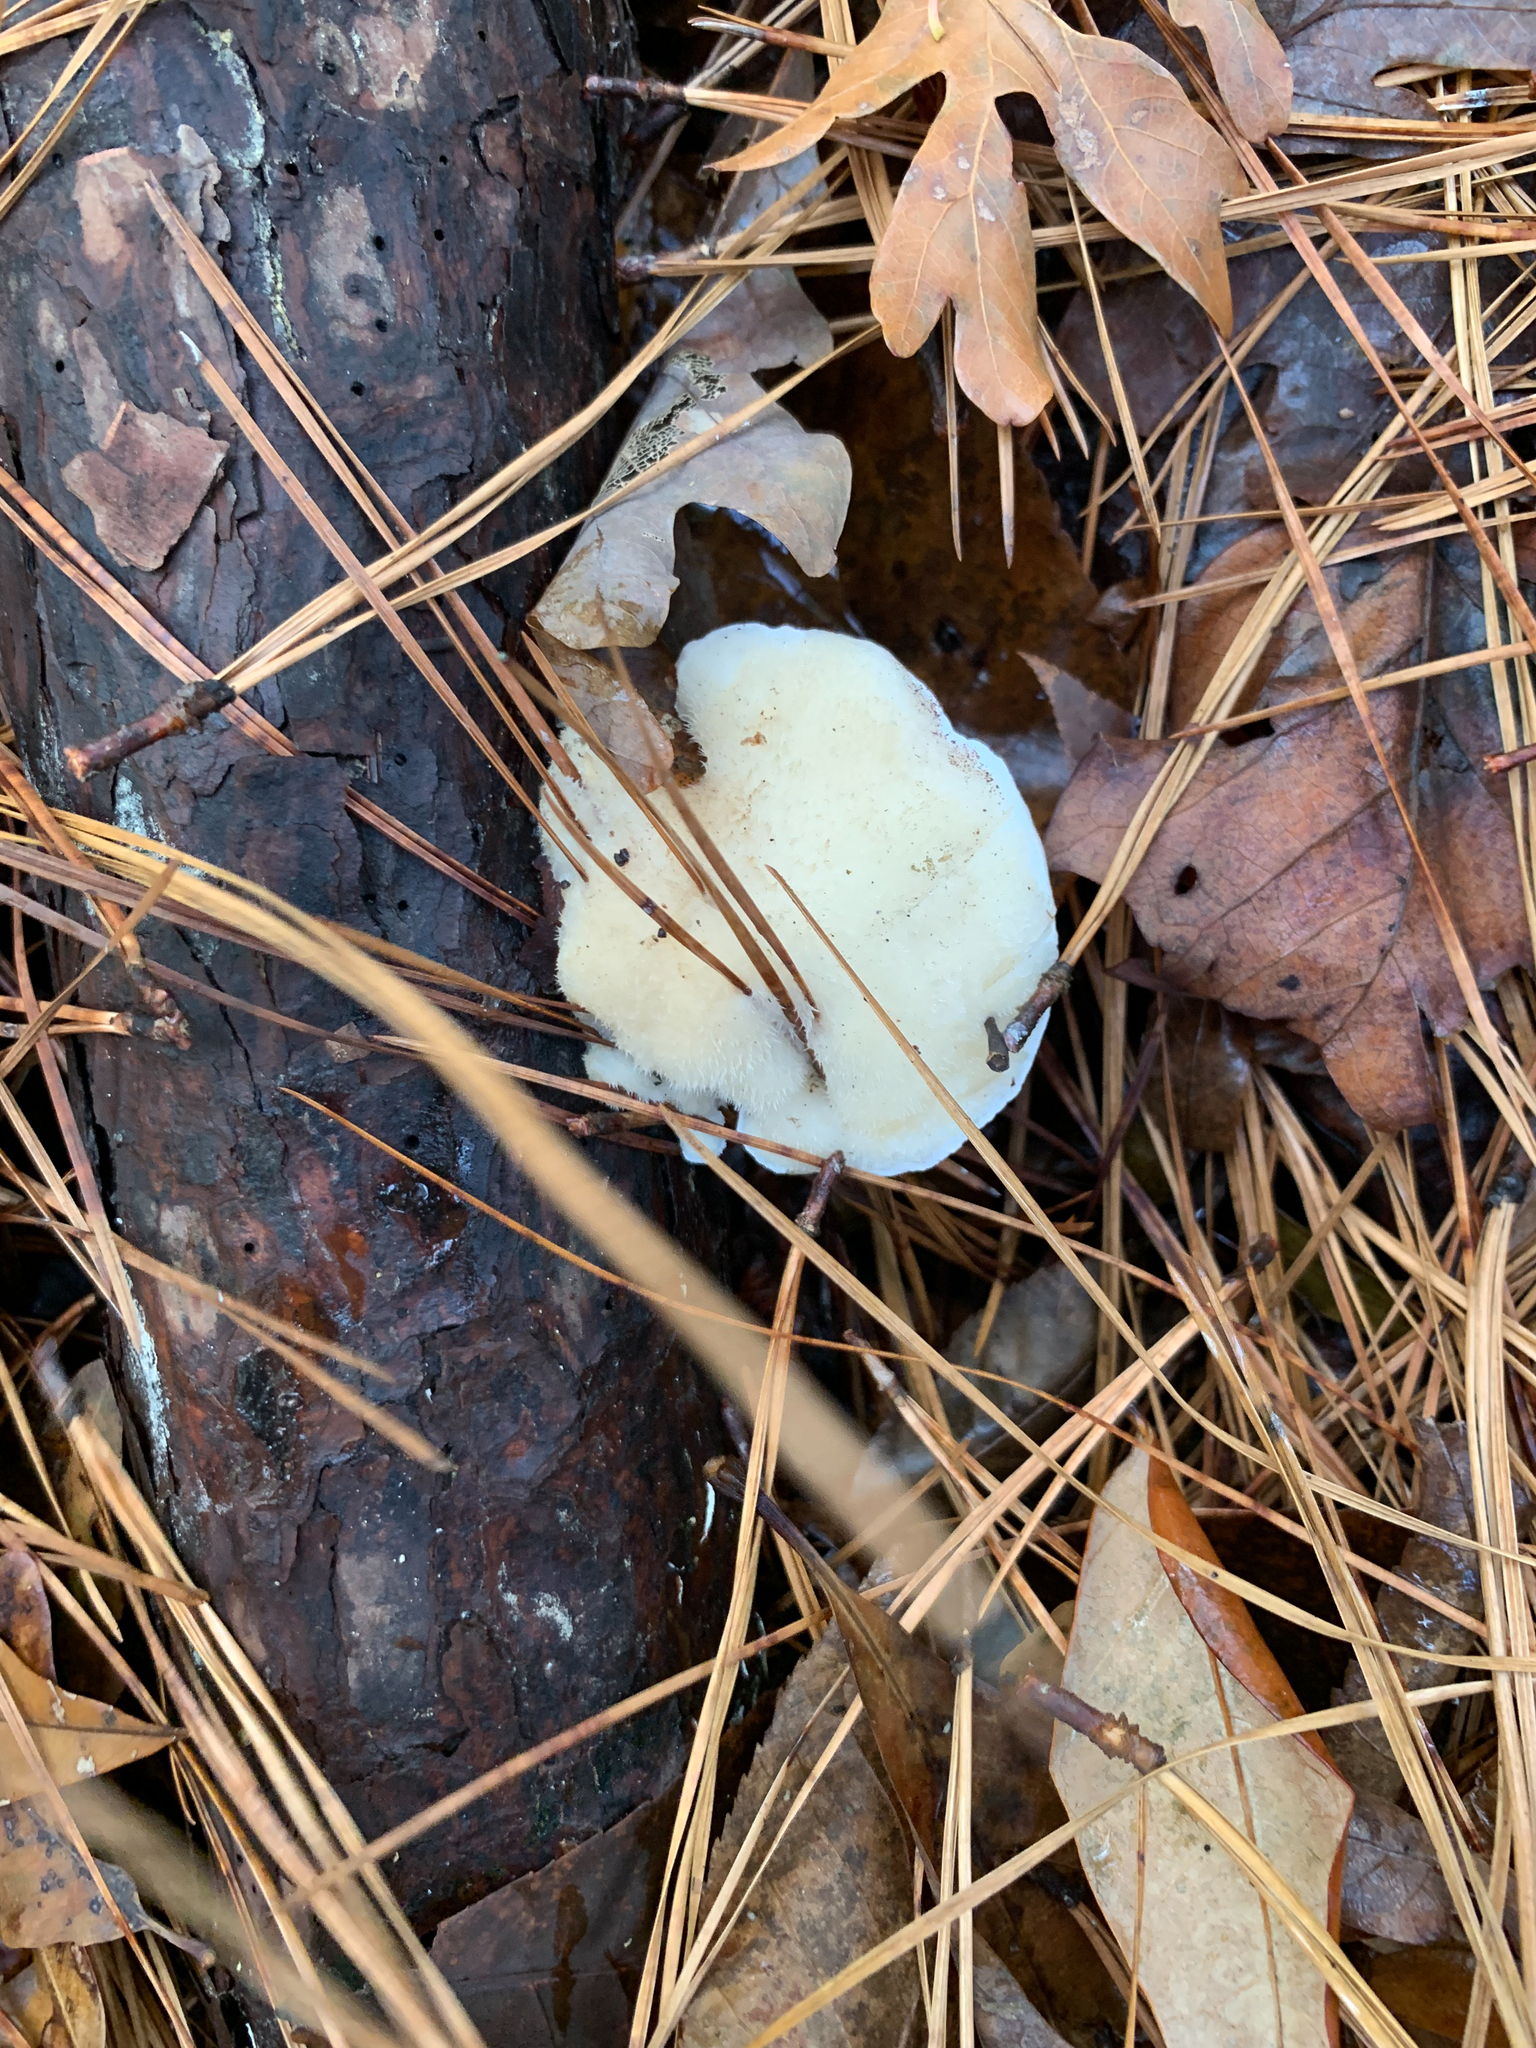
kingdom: Fungi
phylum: Basidiomycota
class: Agaricomycetes
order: Polyporales
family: Polyporaceae
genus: Cyanosporus
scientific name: Cyanosporus livens
